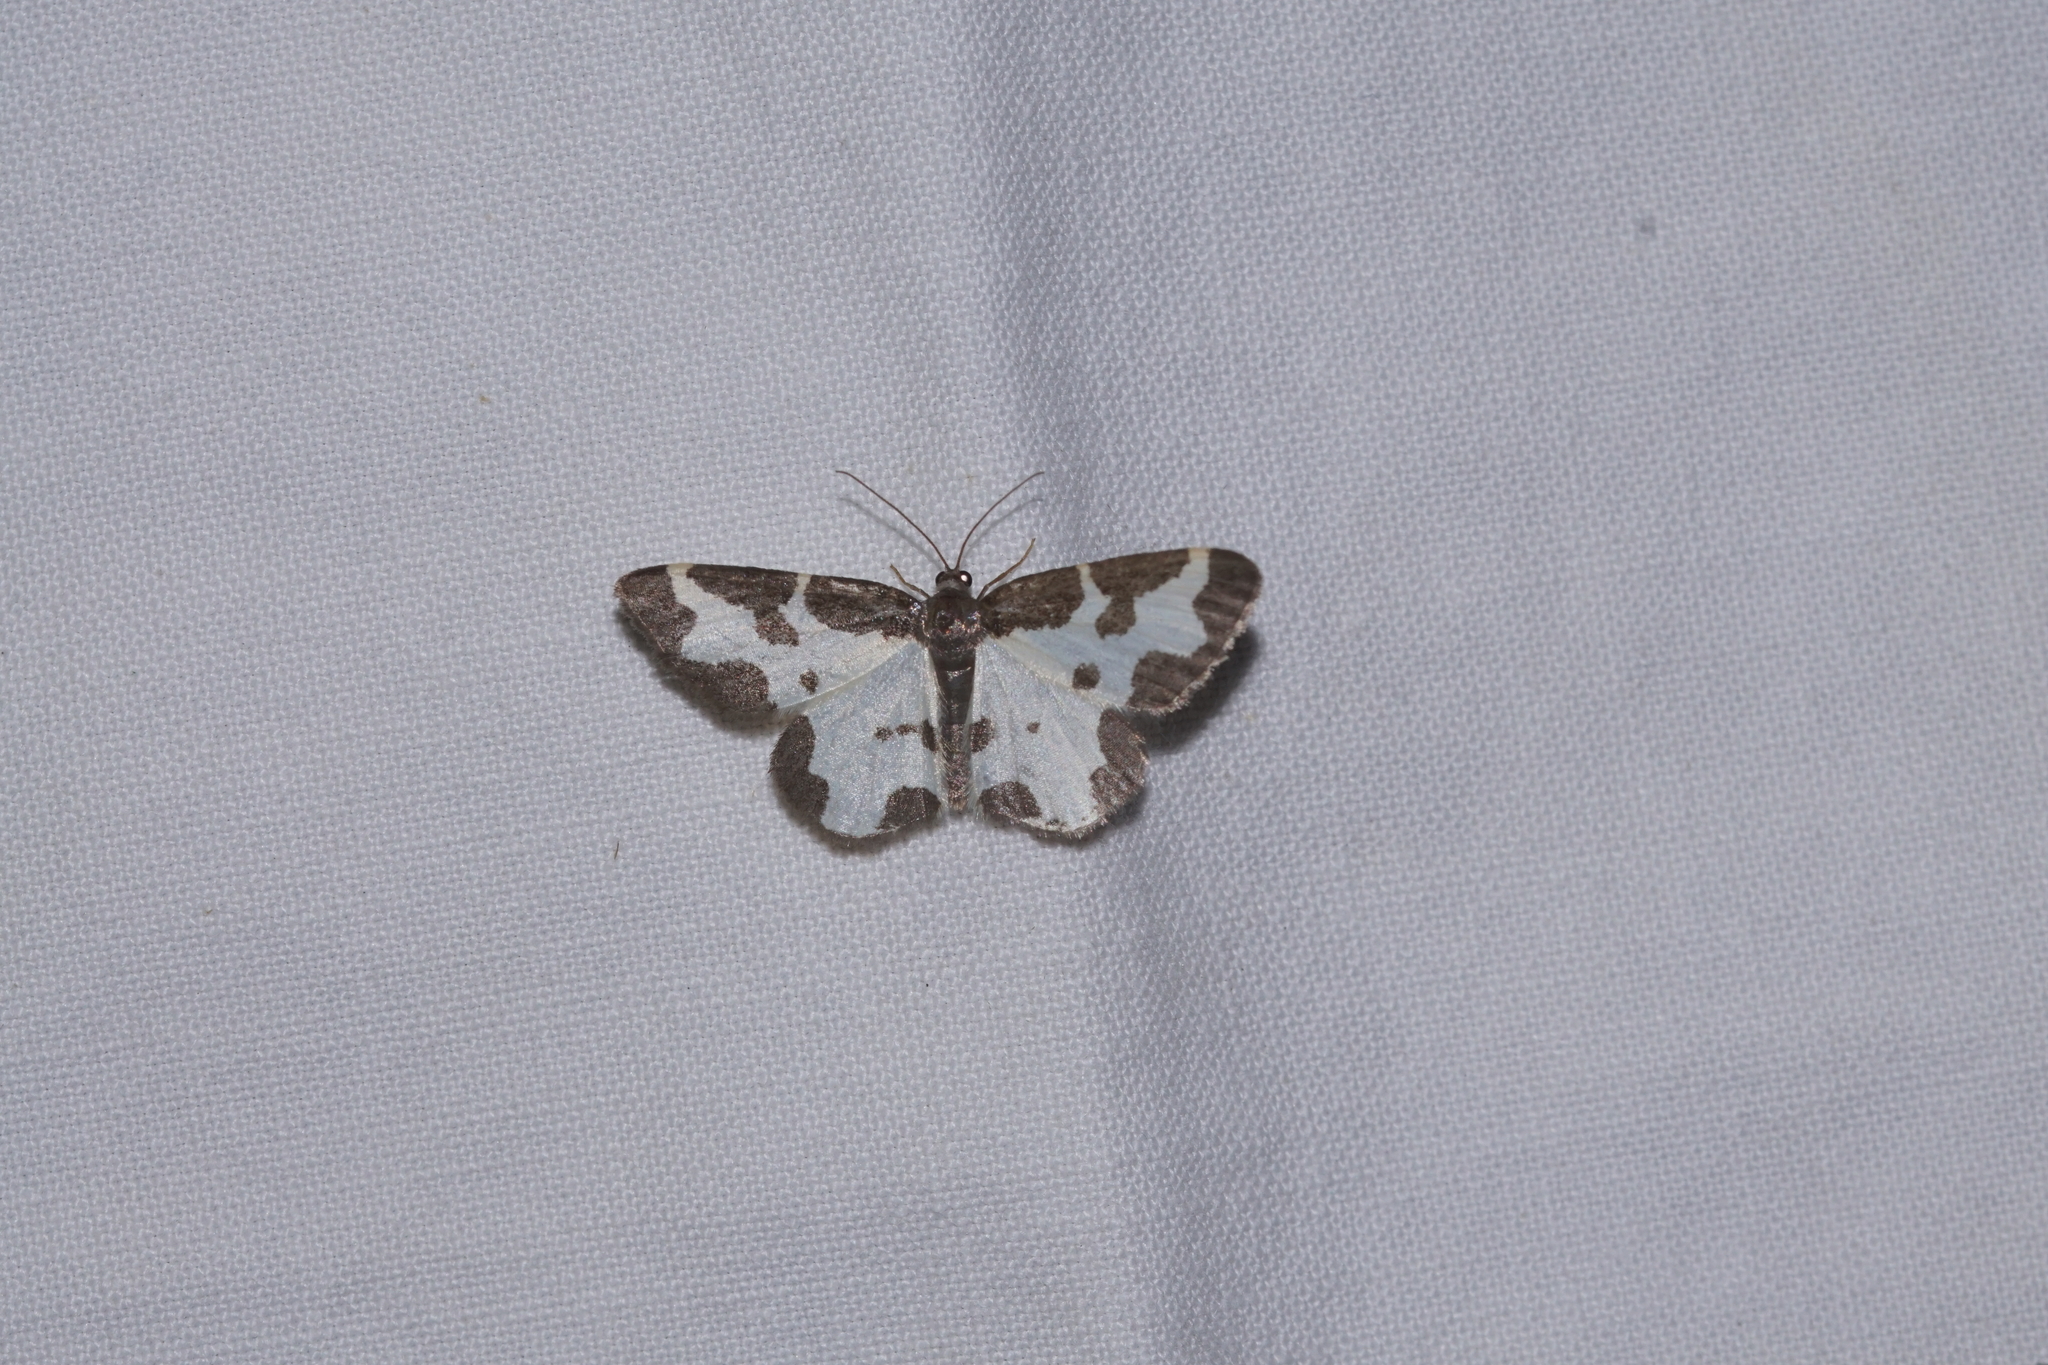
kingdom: Animalia
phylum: Arthropoda
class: Insecta
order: Lepidoptera
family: Geometridae
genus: Lomaspilis
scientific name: Lomaspilis marginata
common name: Clouded border
